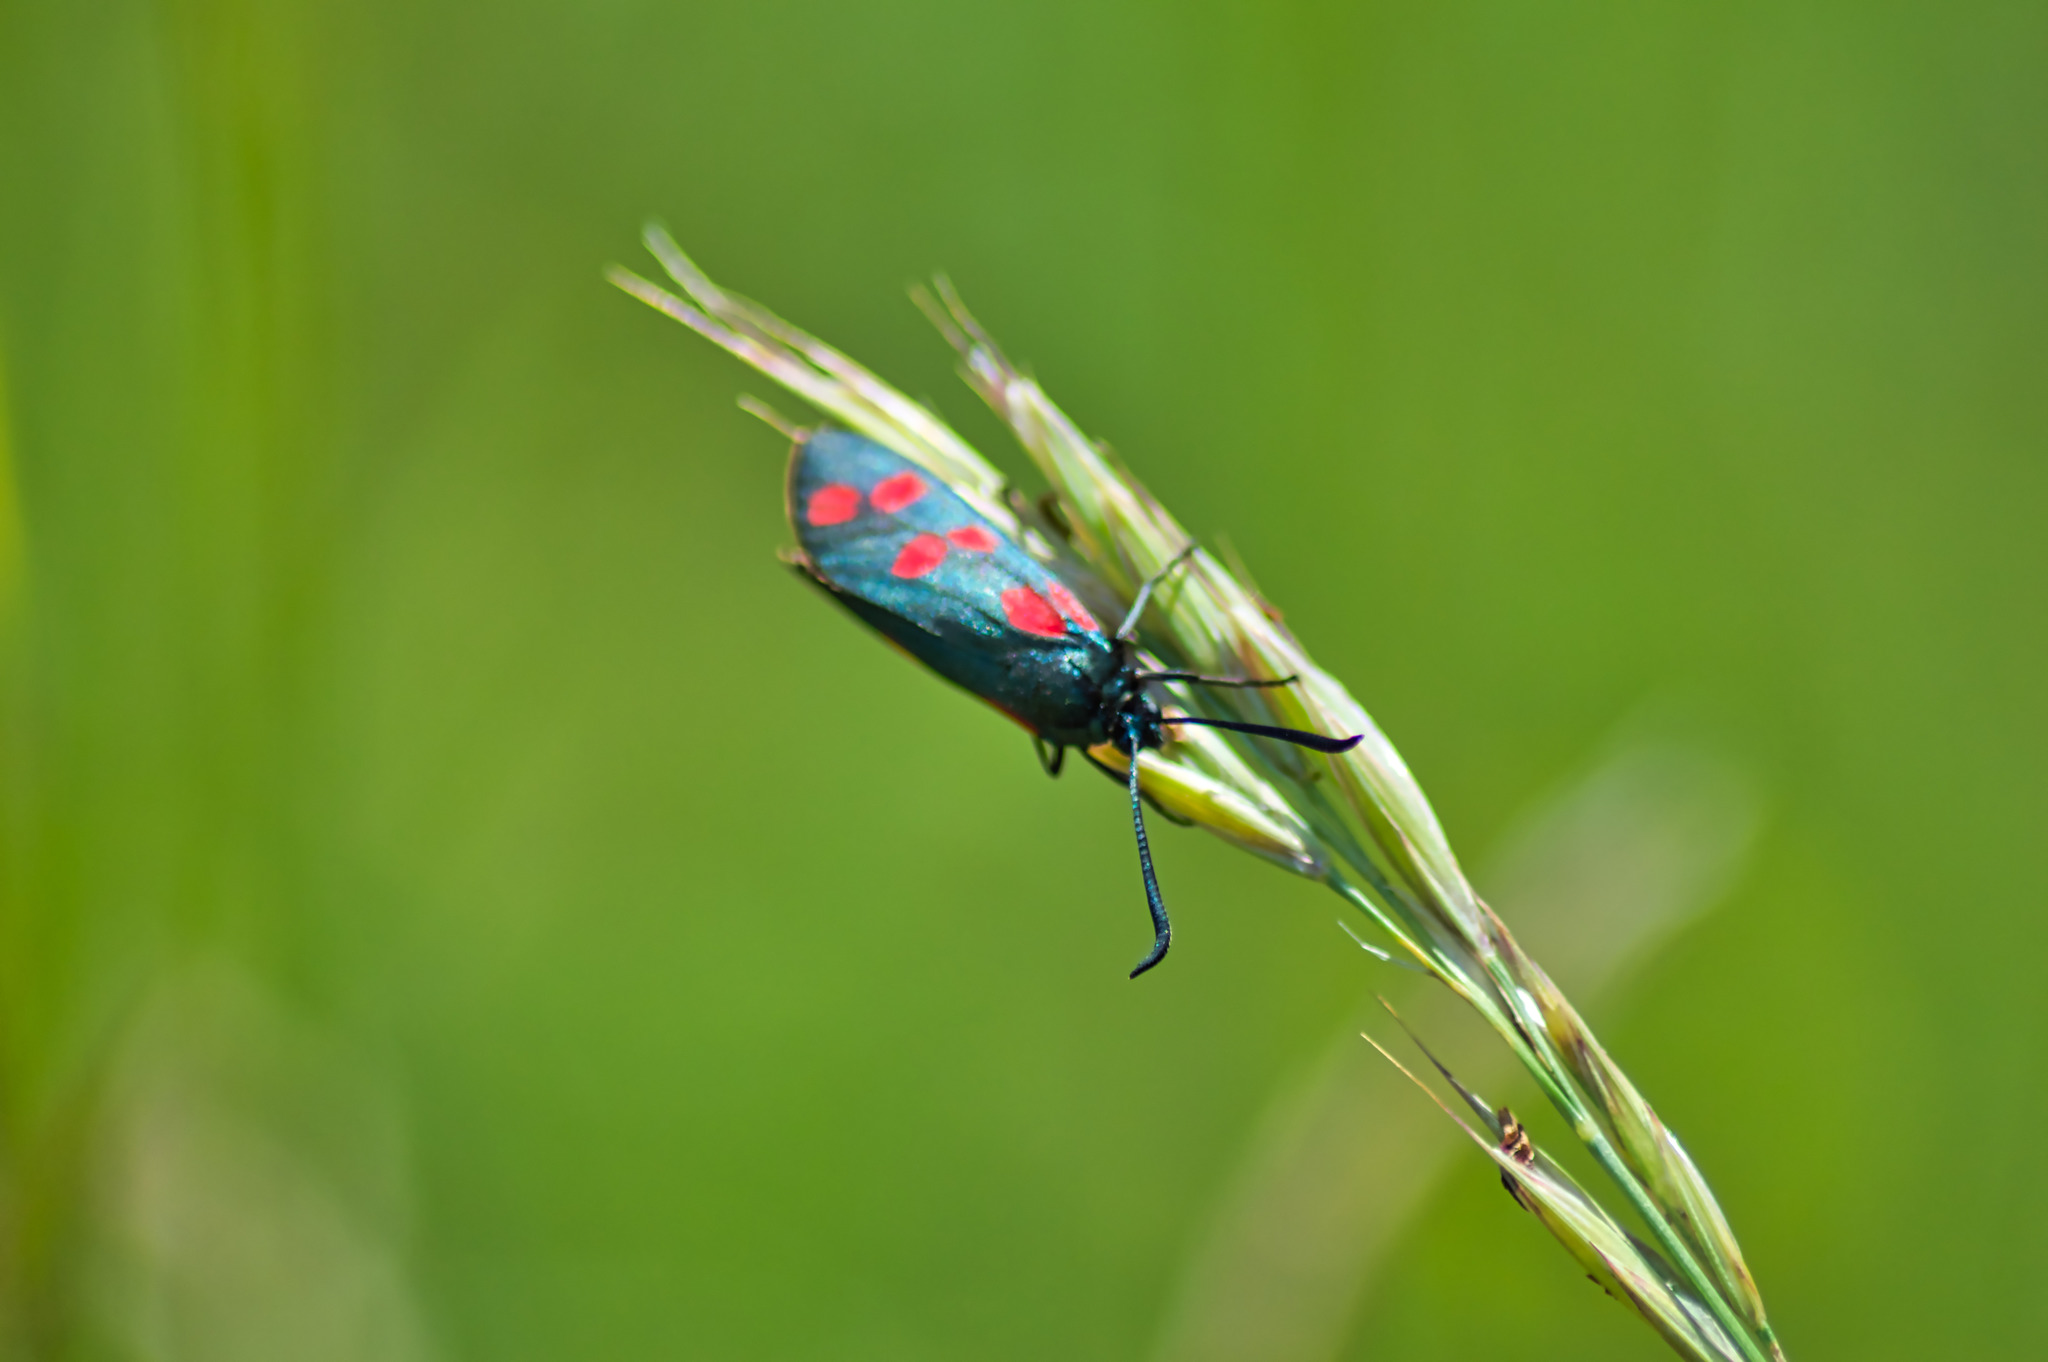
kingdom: Animalia
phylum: Arthropoda
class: Insecta
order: Lepidoptera
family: Zygaenidae
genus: Zygaena
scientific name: Zygaena filipendulae
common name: Six-spot burnet
